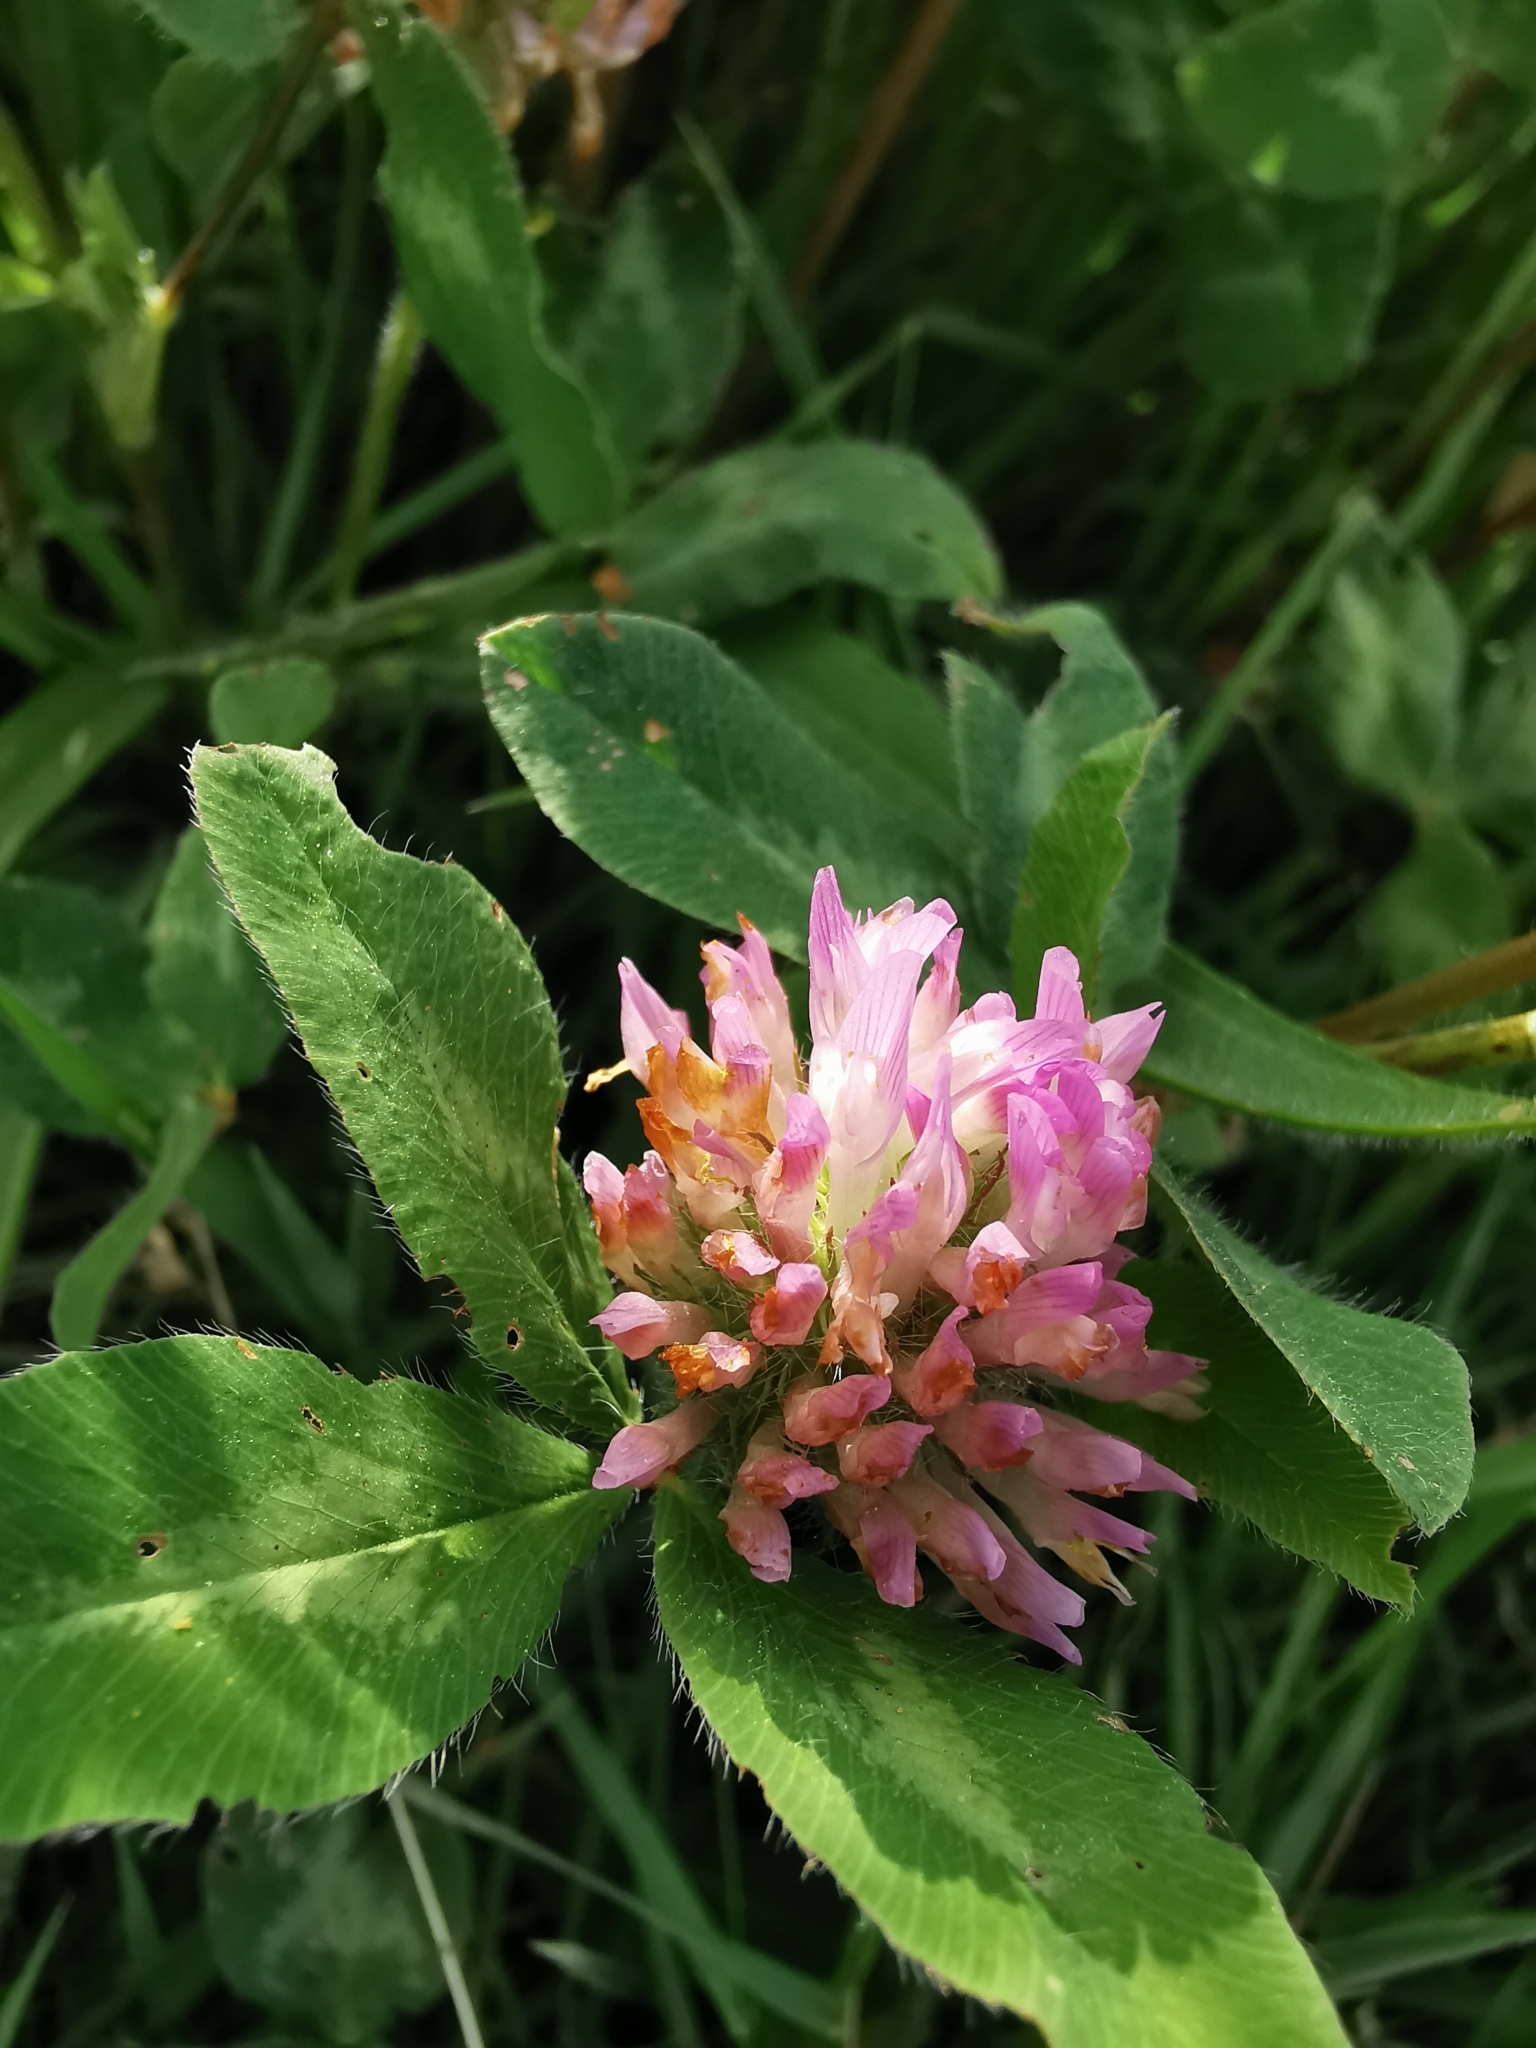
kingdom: Plantae
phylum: Tracheophyta
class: Magnoliopsida
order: Fabales
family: Fabaceae
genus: Trifolium
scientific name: Trifolium pratense
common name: Red clover
